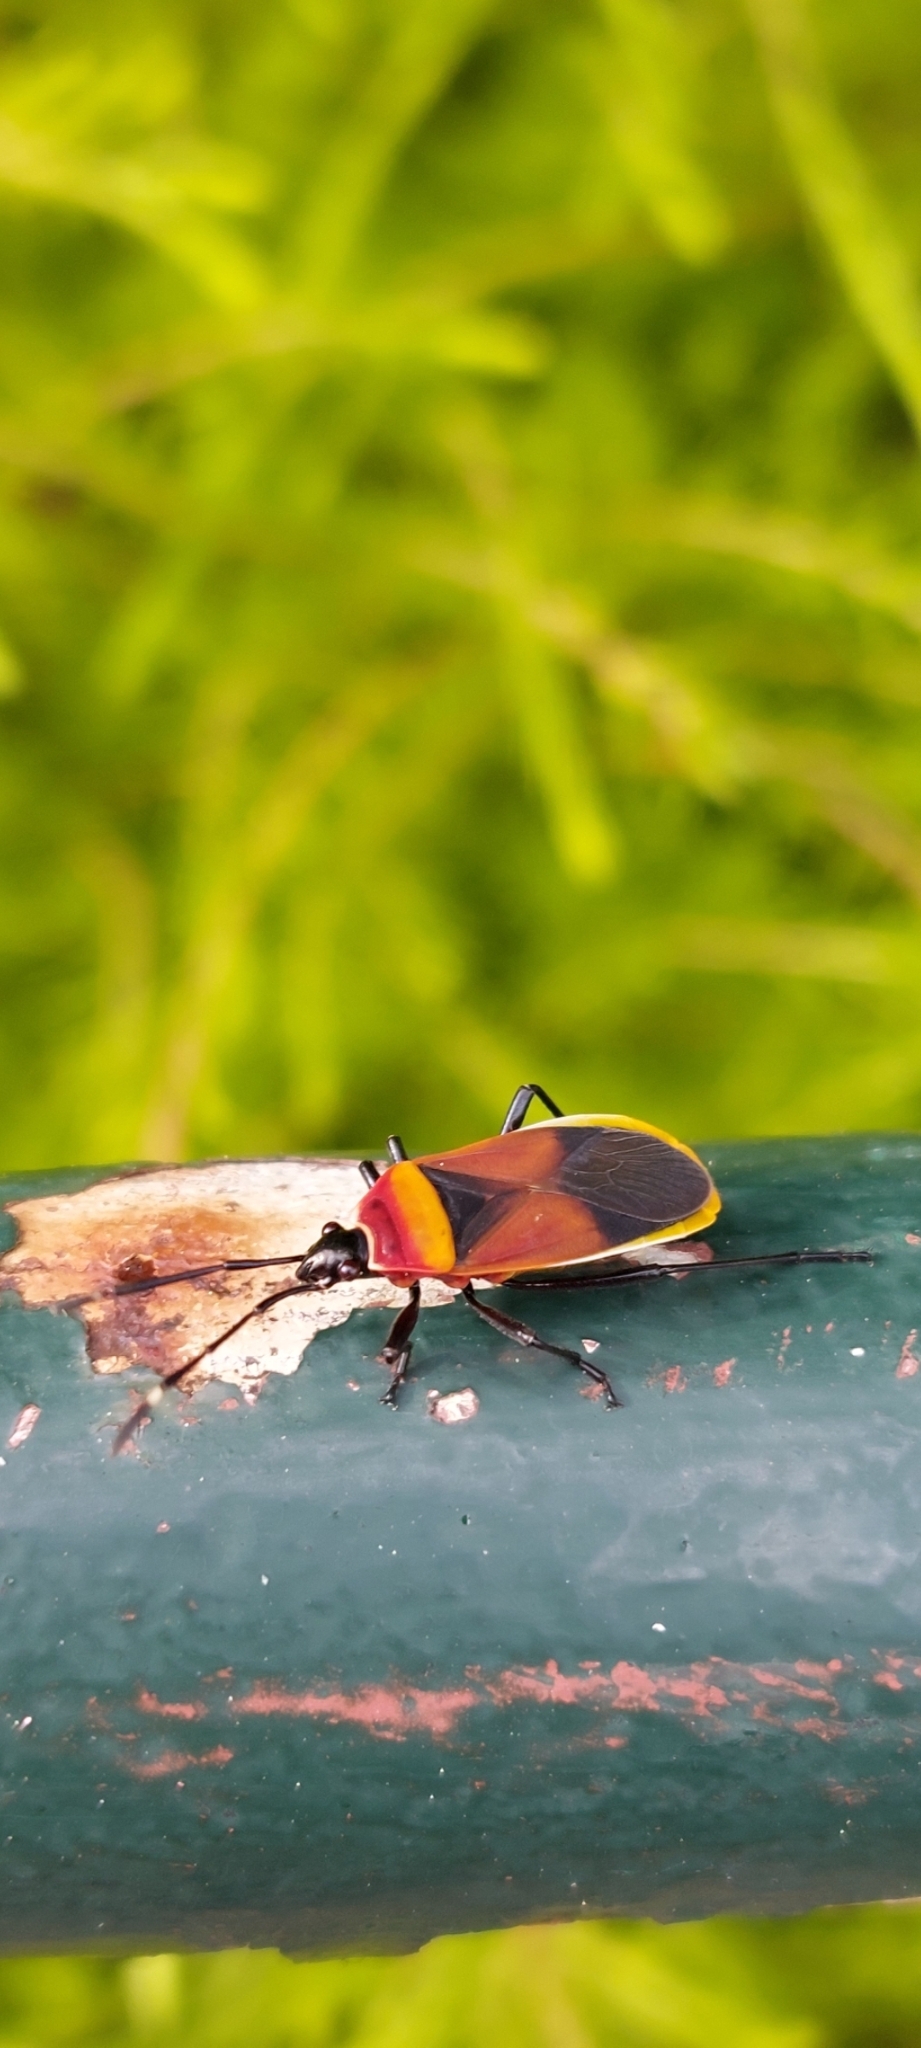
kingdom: Animalia
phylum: Arthropoda
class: Insecta
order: Hemiptera
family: Pyrrhocoridae
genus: Dindymus
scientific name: Dindymus
